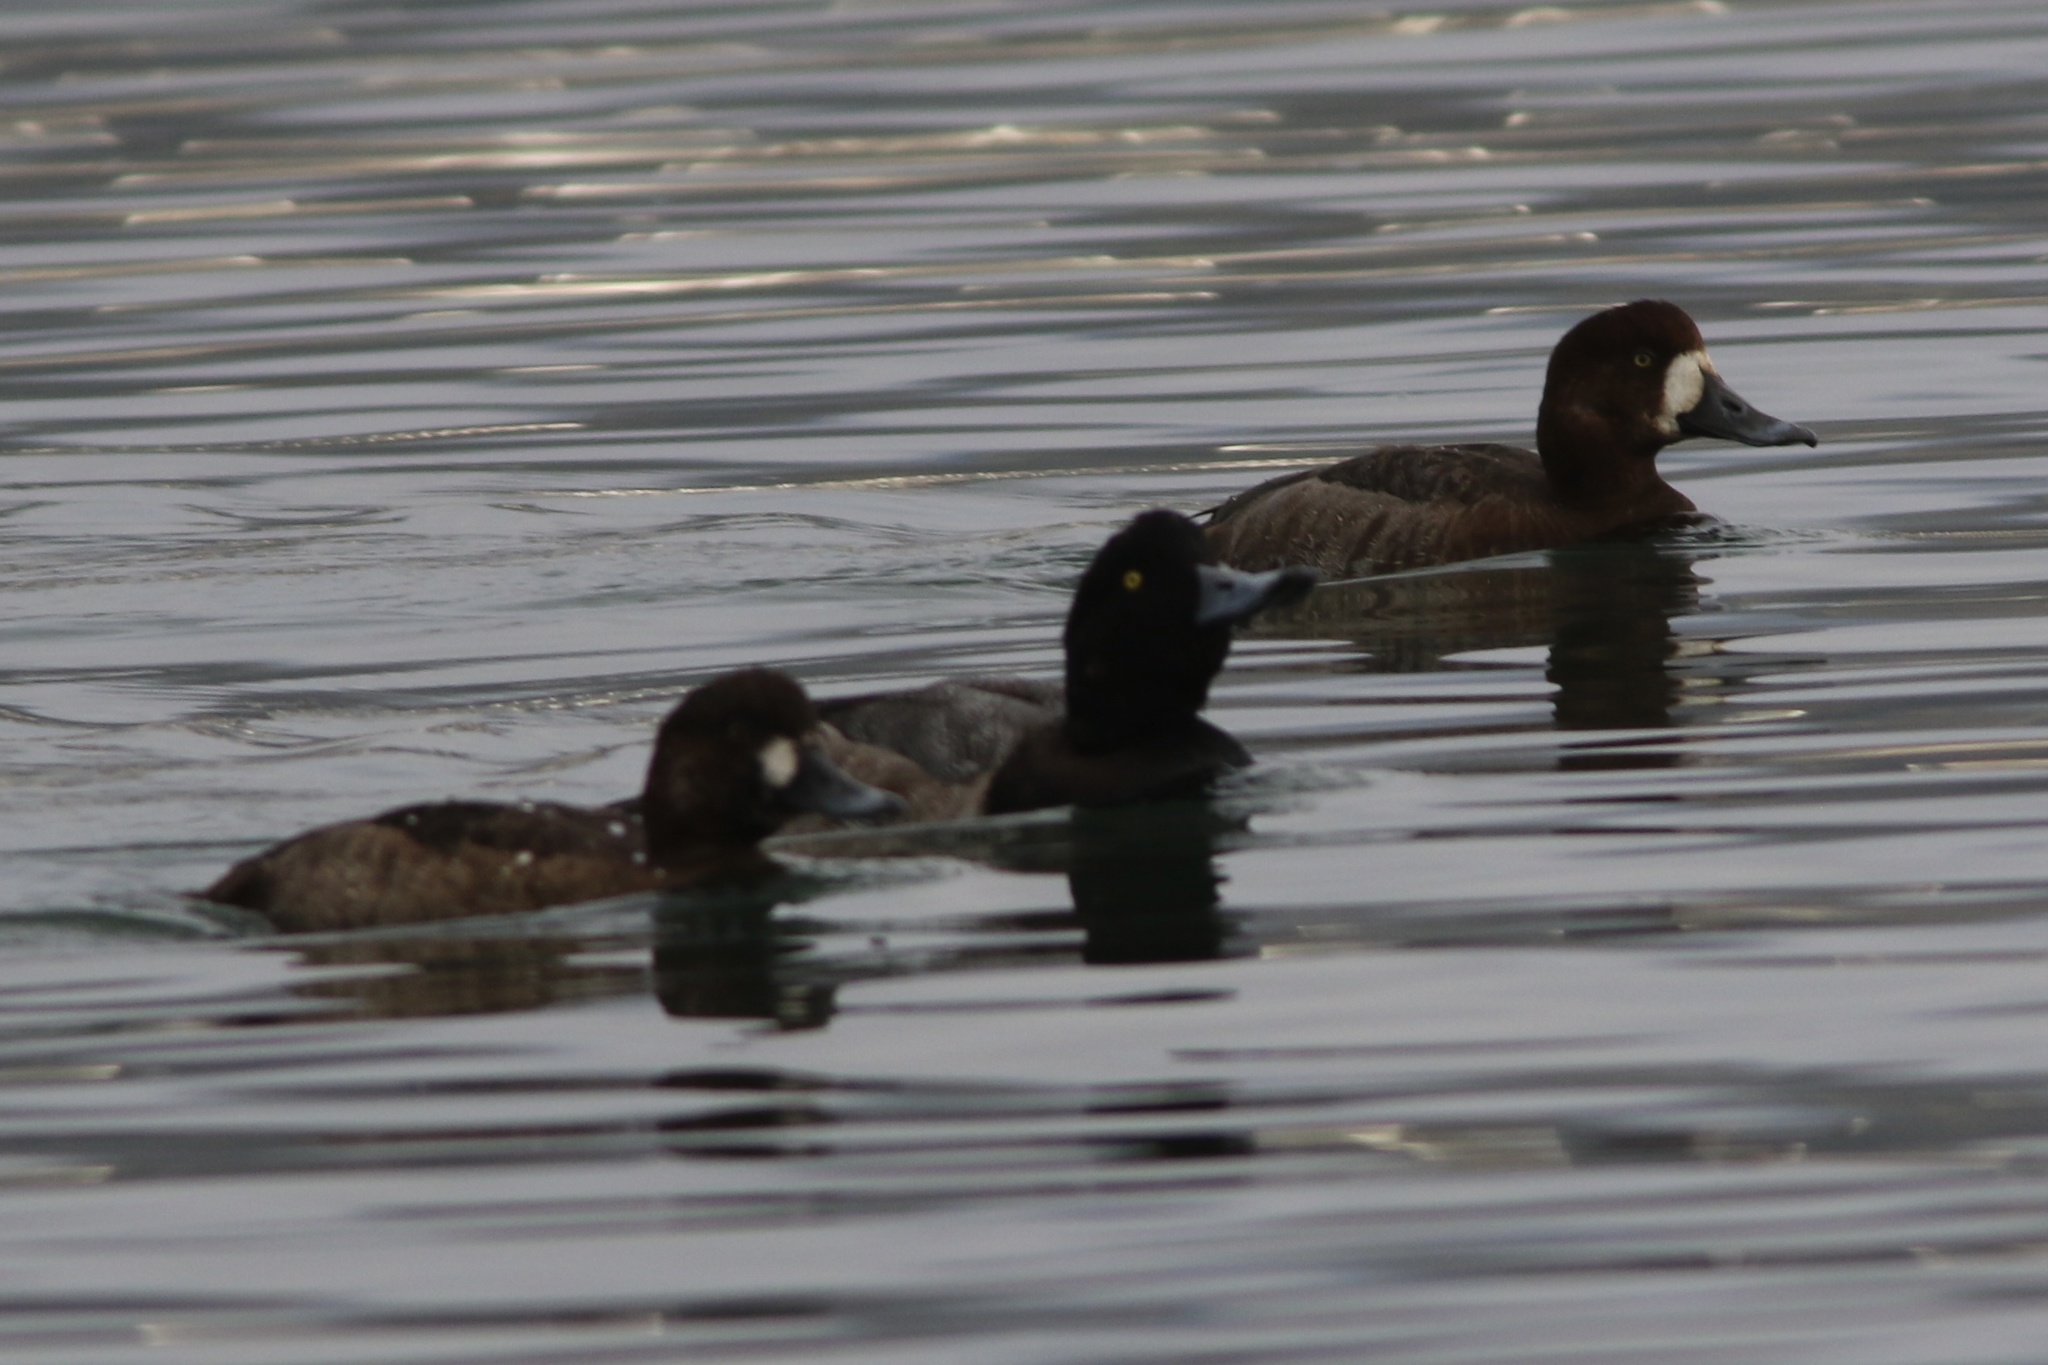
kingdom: Animalia
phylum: Chordata
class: Aves
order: Anseriformes
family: Anatidae
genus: Aythya
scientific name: Aythya marila
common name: Greater scaup
